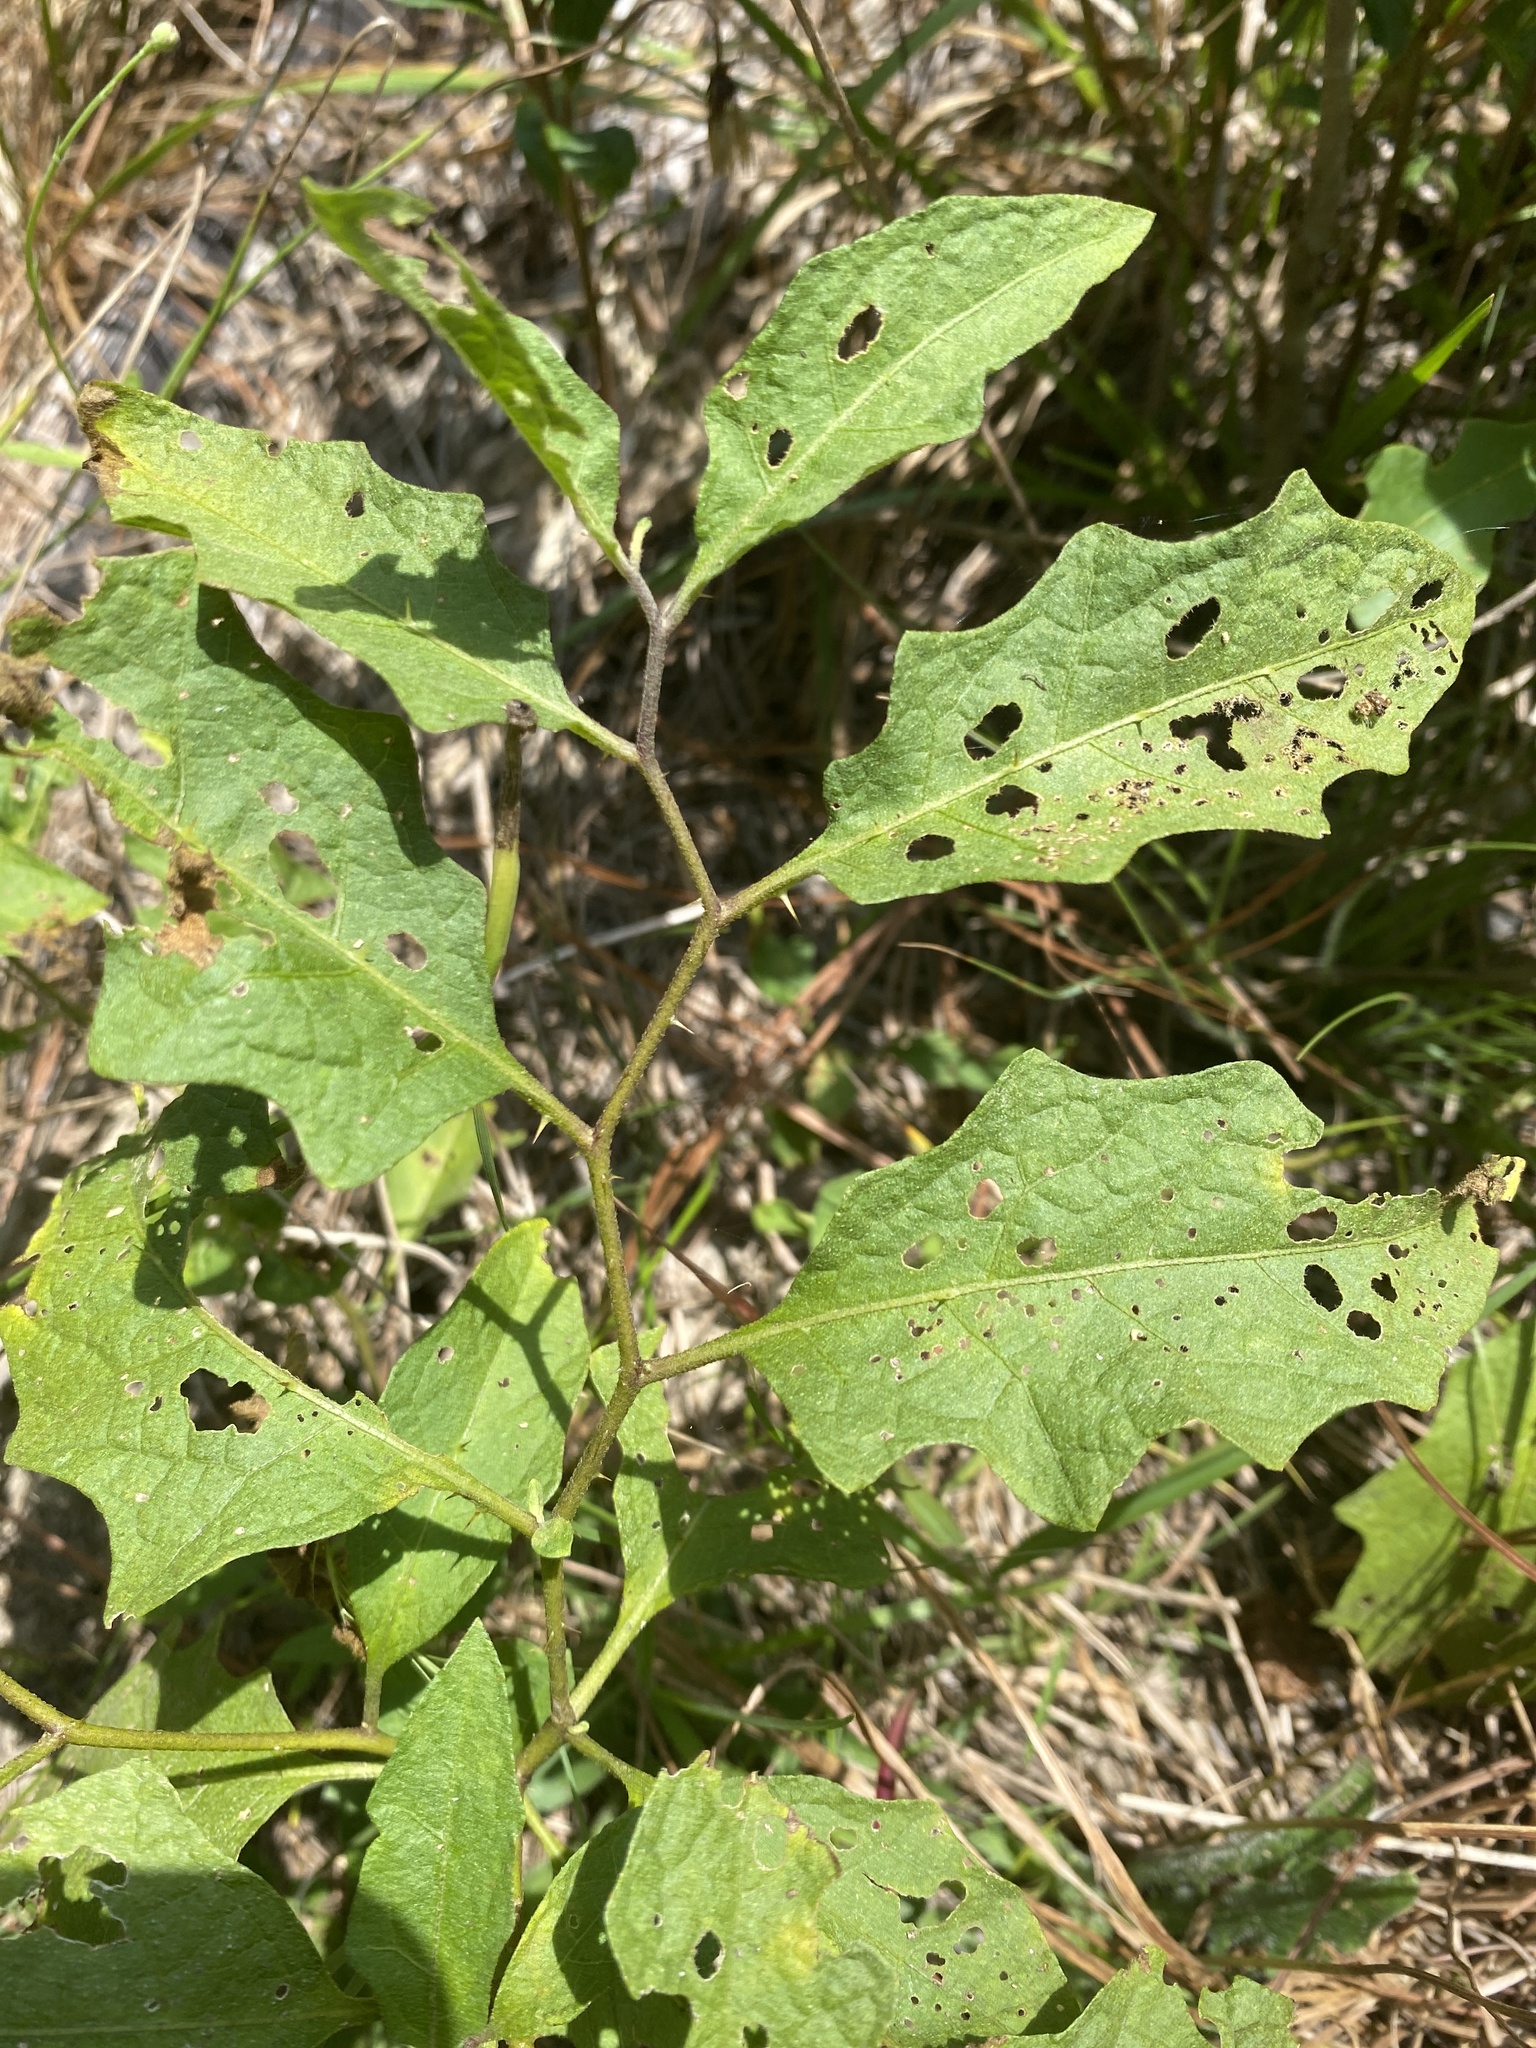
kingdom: Plantae
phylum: Tracheophyta
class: Magnoliopsida
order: Solanales
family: Solanaceae
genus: Solanum
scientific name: Solanum carolinense
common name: Horse-nettle
